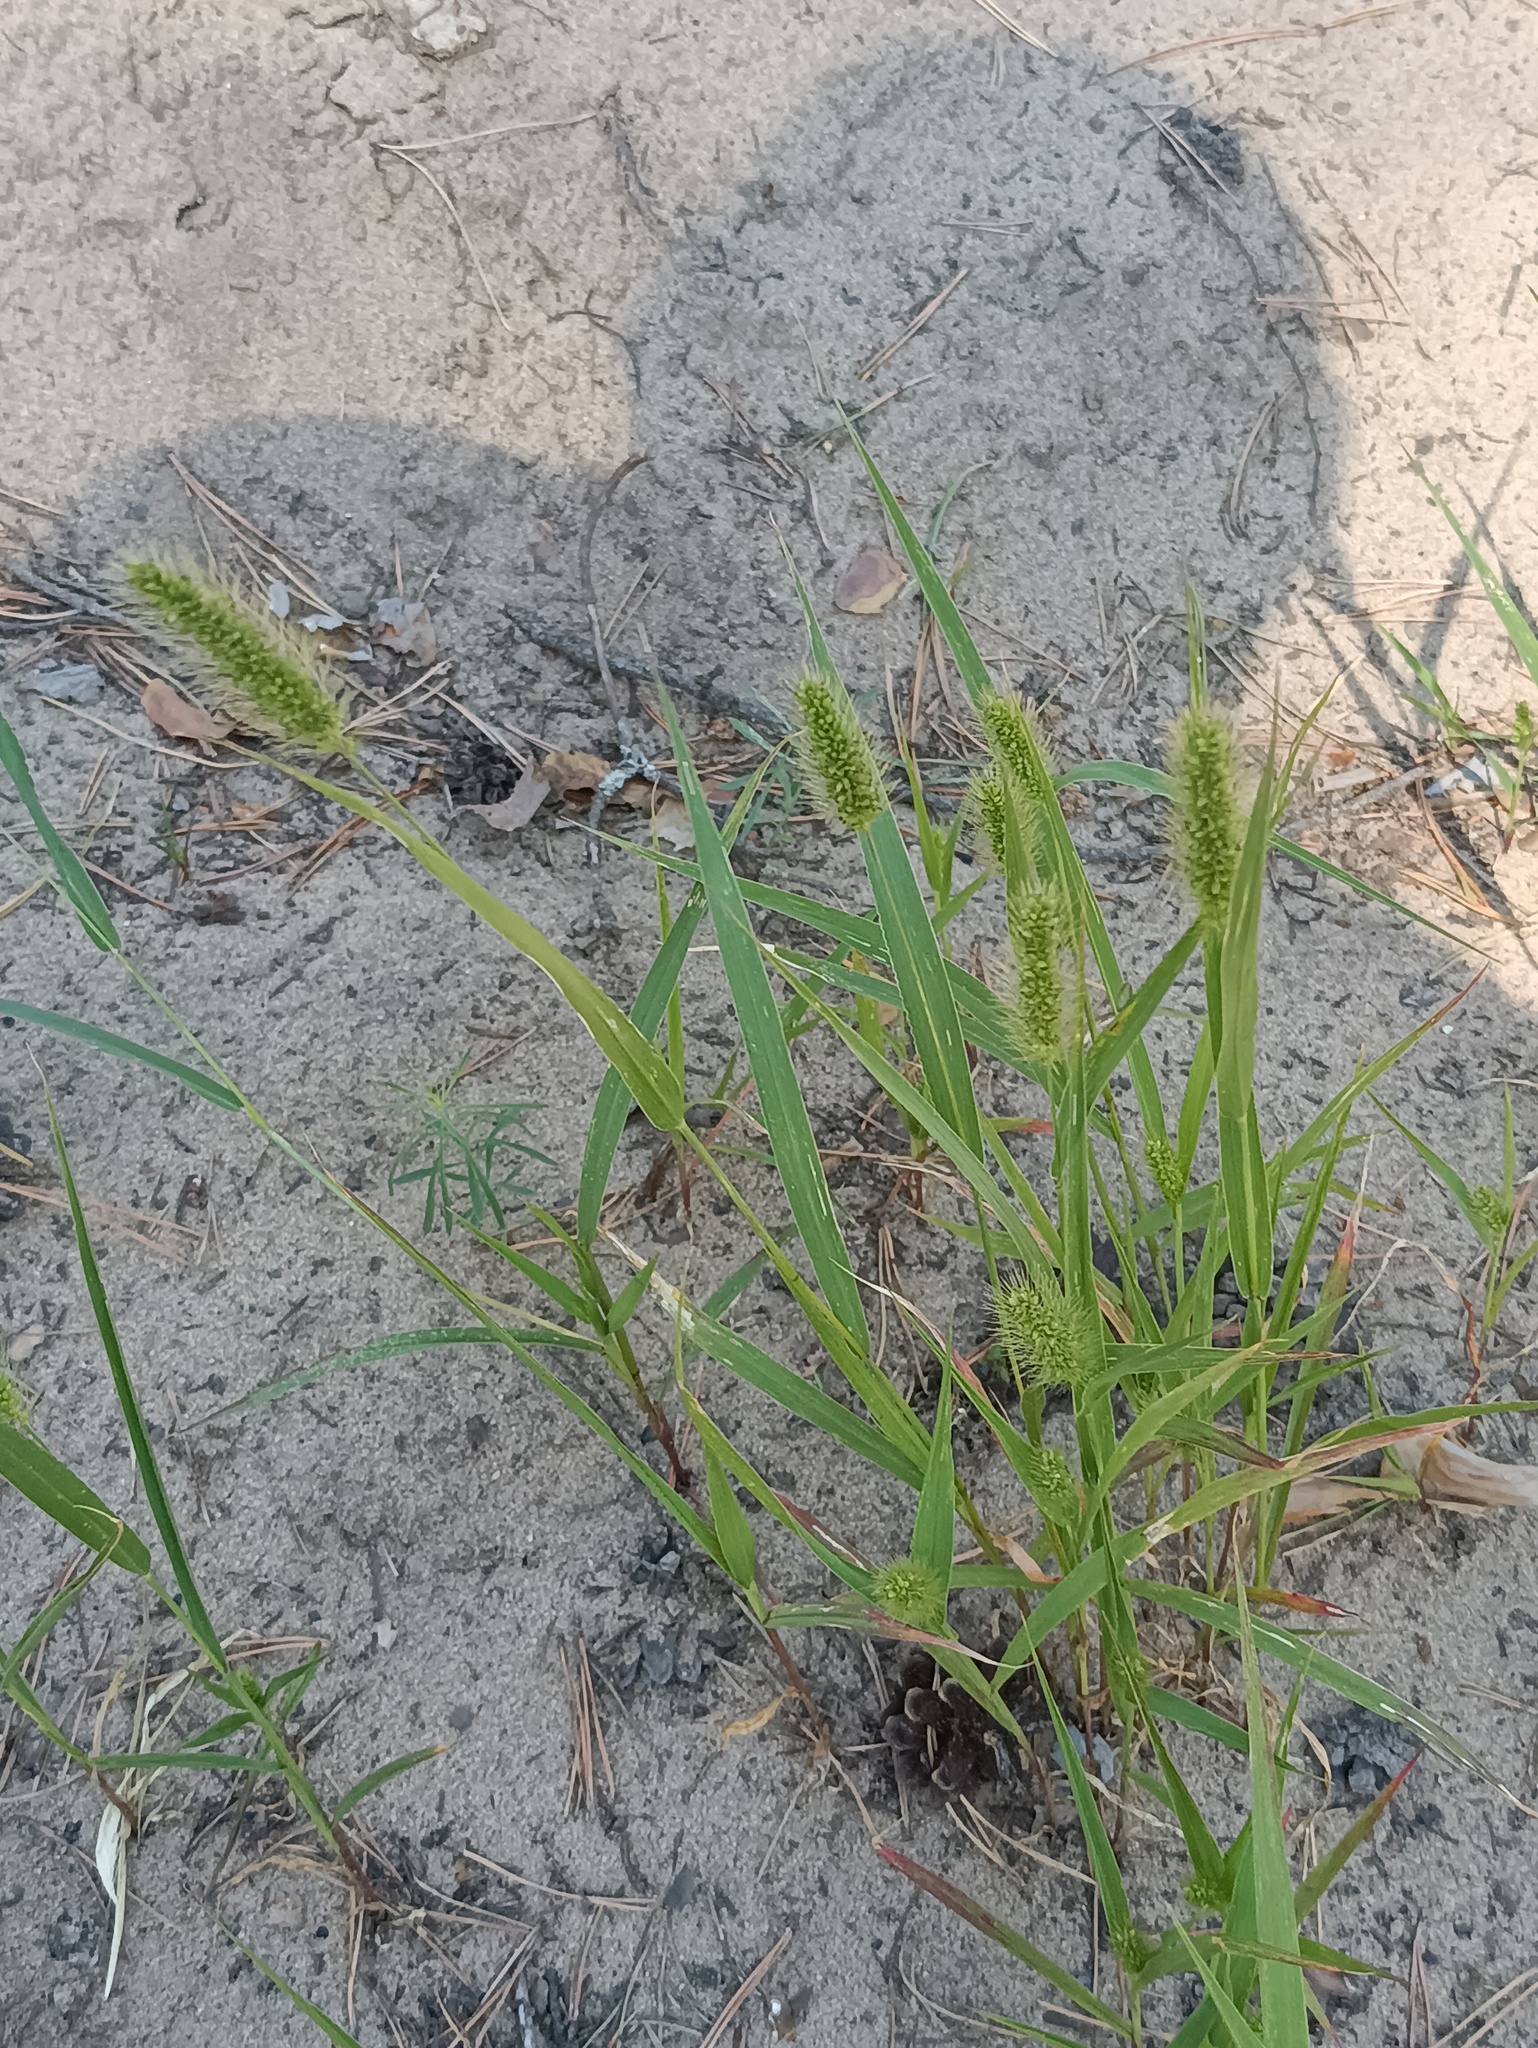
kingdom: Plantae
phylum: Tracheophyta
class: Liliopsida
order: Poales
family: Poaceae
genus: Setaria
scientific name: Setaria viridis
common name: Green bristlegrass
